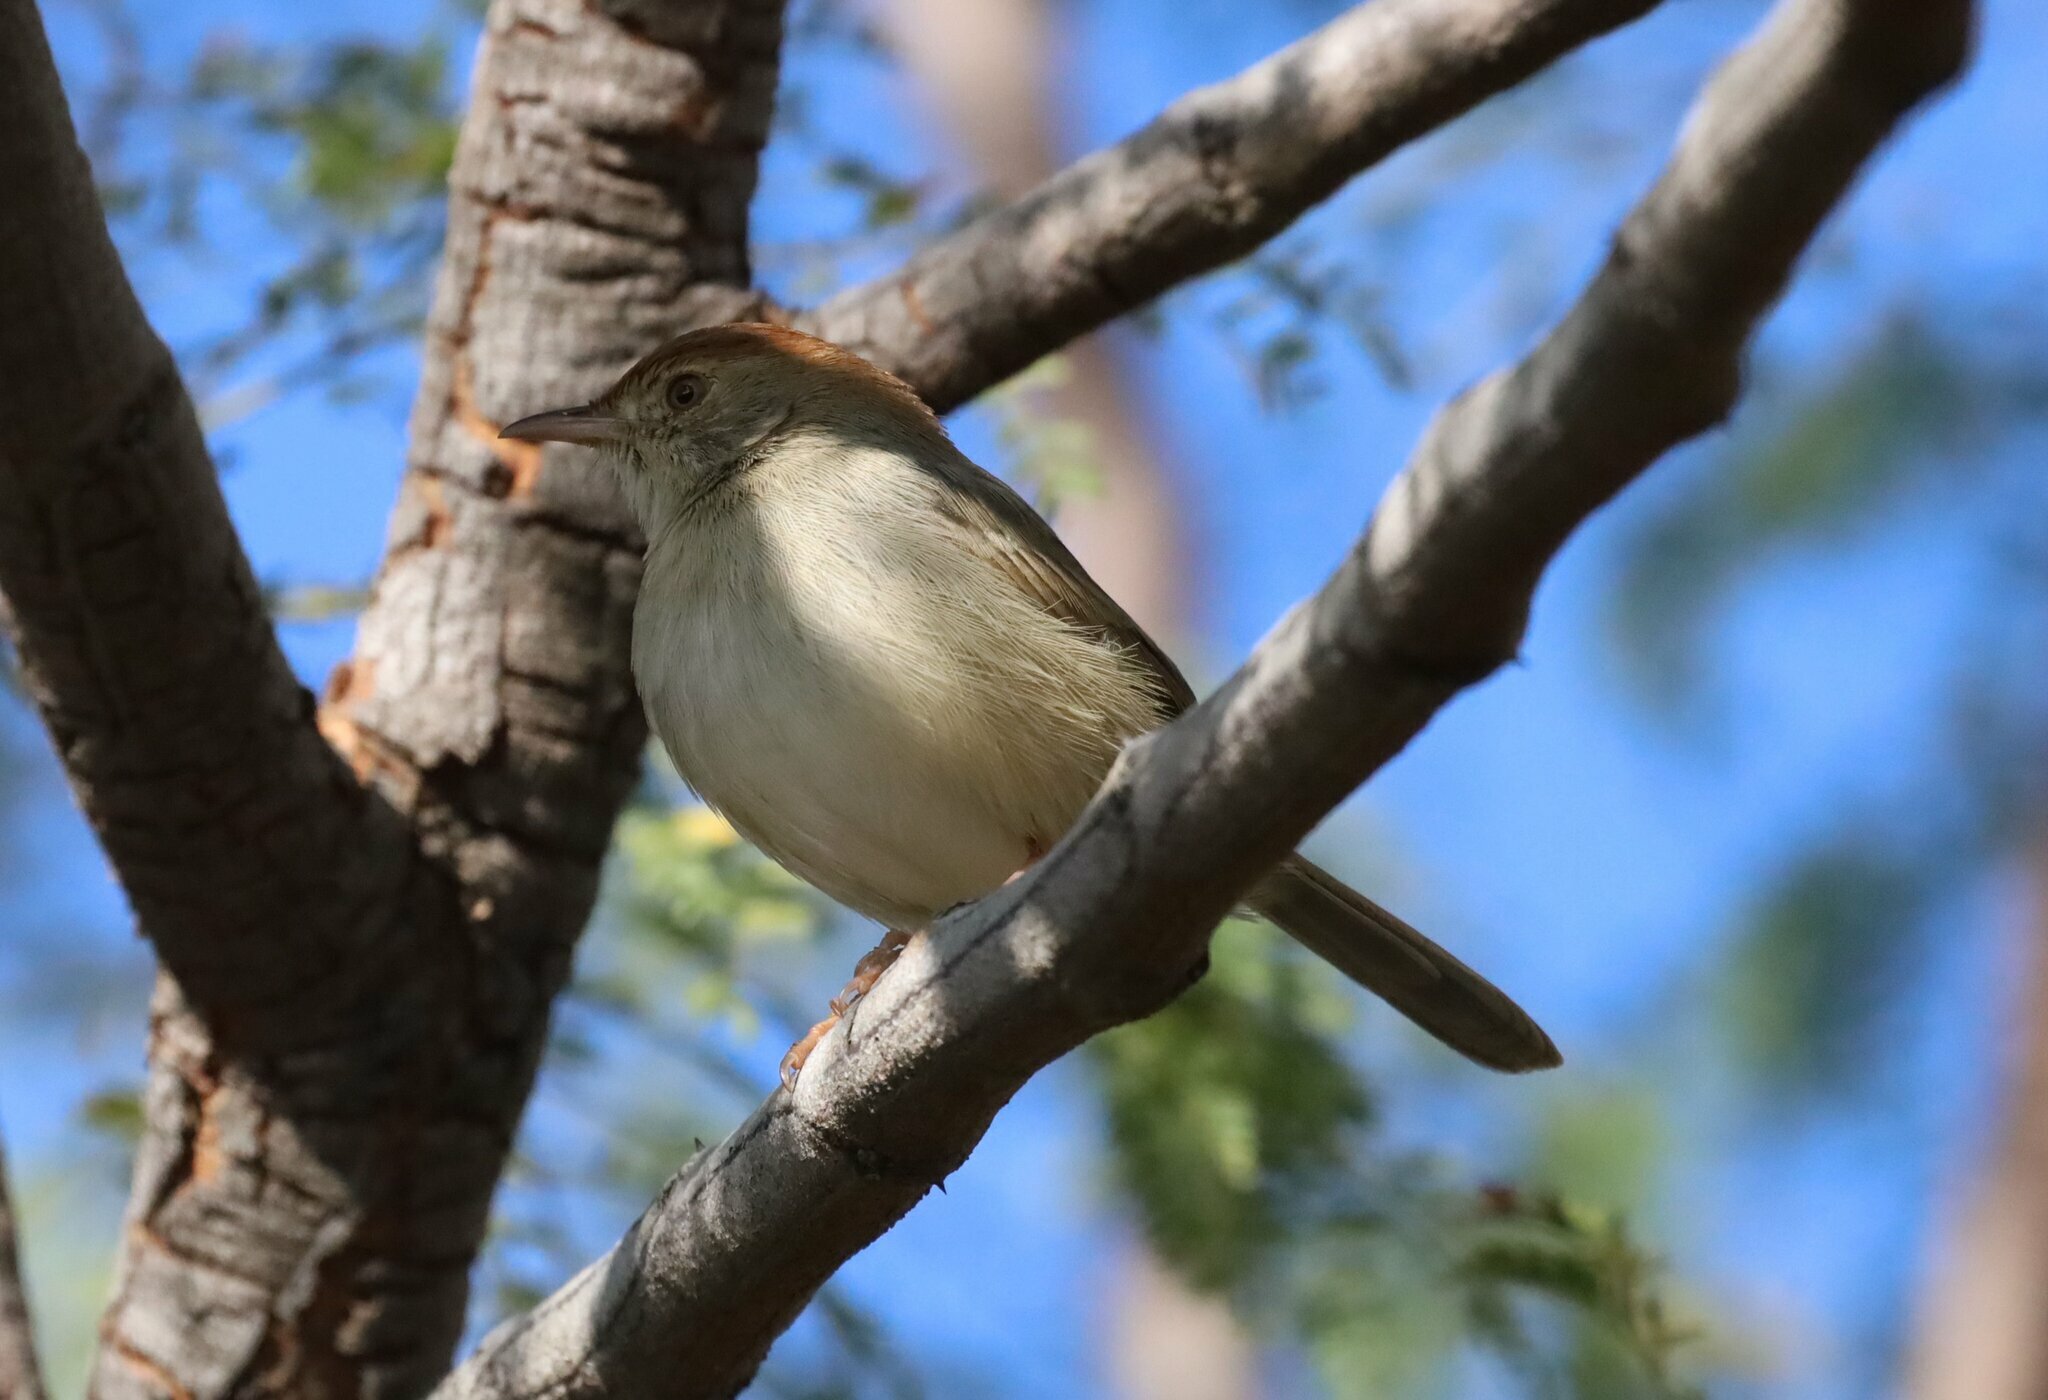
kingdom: Animalia
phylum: Chordata
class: Aves
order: Passeriformes
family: Cisticolidae
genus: Cisticola
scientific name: Cisticola fulvicapilla
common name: Neddicky
